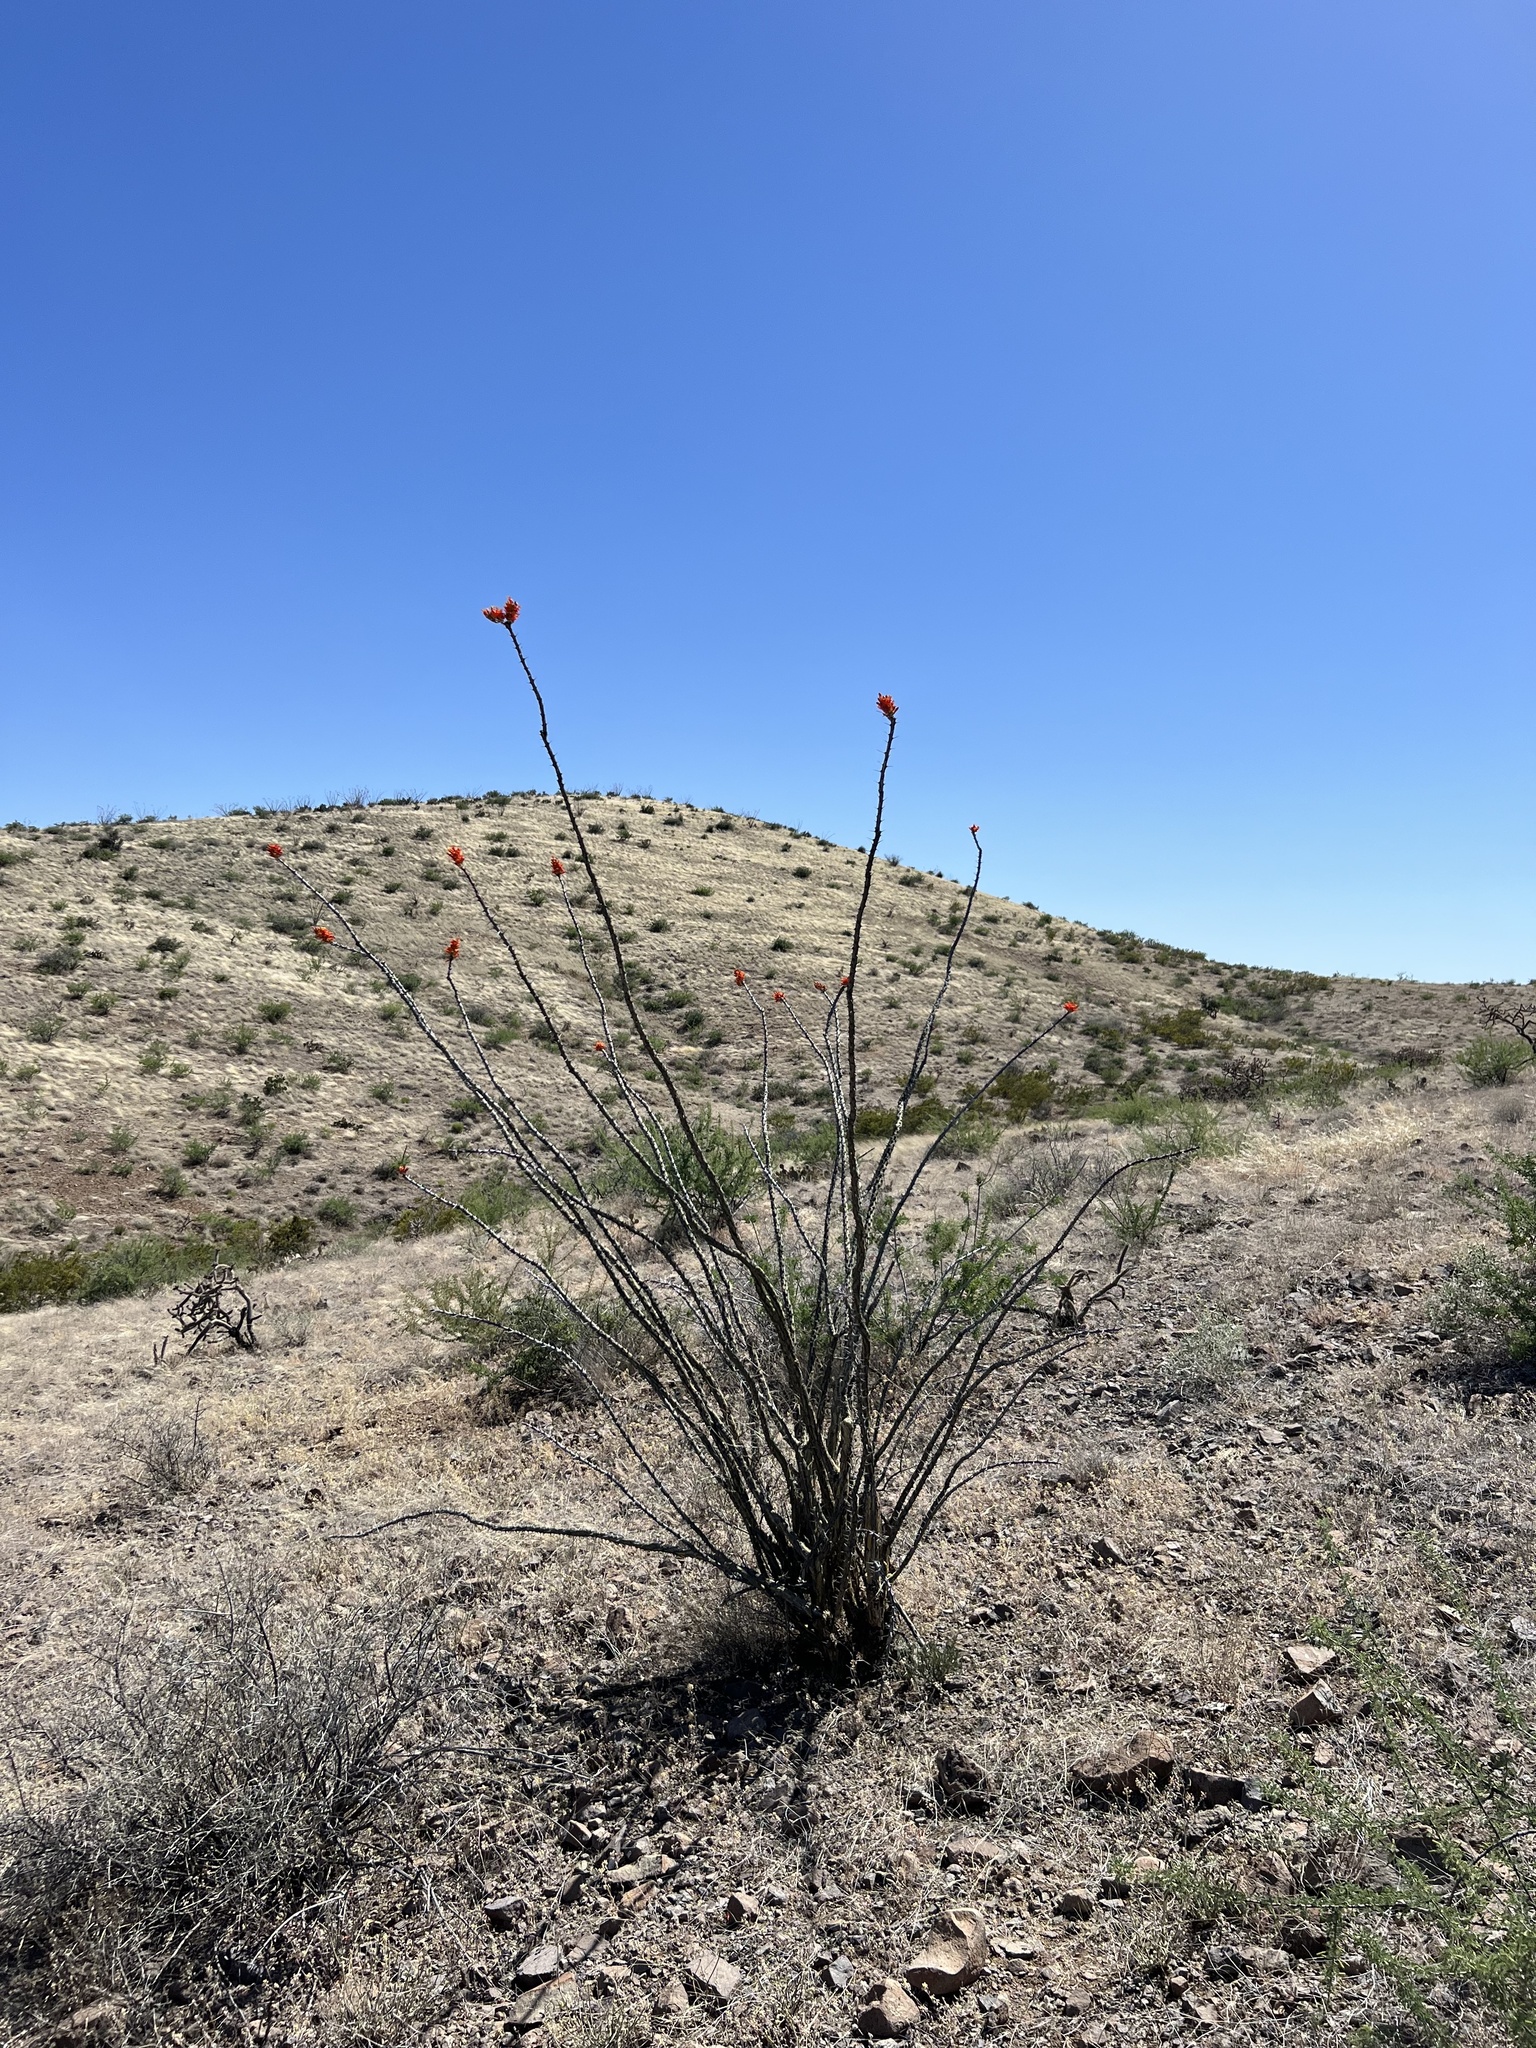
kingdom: Plantae
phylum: Tracheophyta
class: Magnoliopsida
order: Ericales
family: Fouquieriaceae
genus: Fouquieria
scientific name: Fouquieria splendens
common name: Vine-cactus
